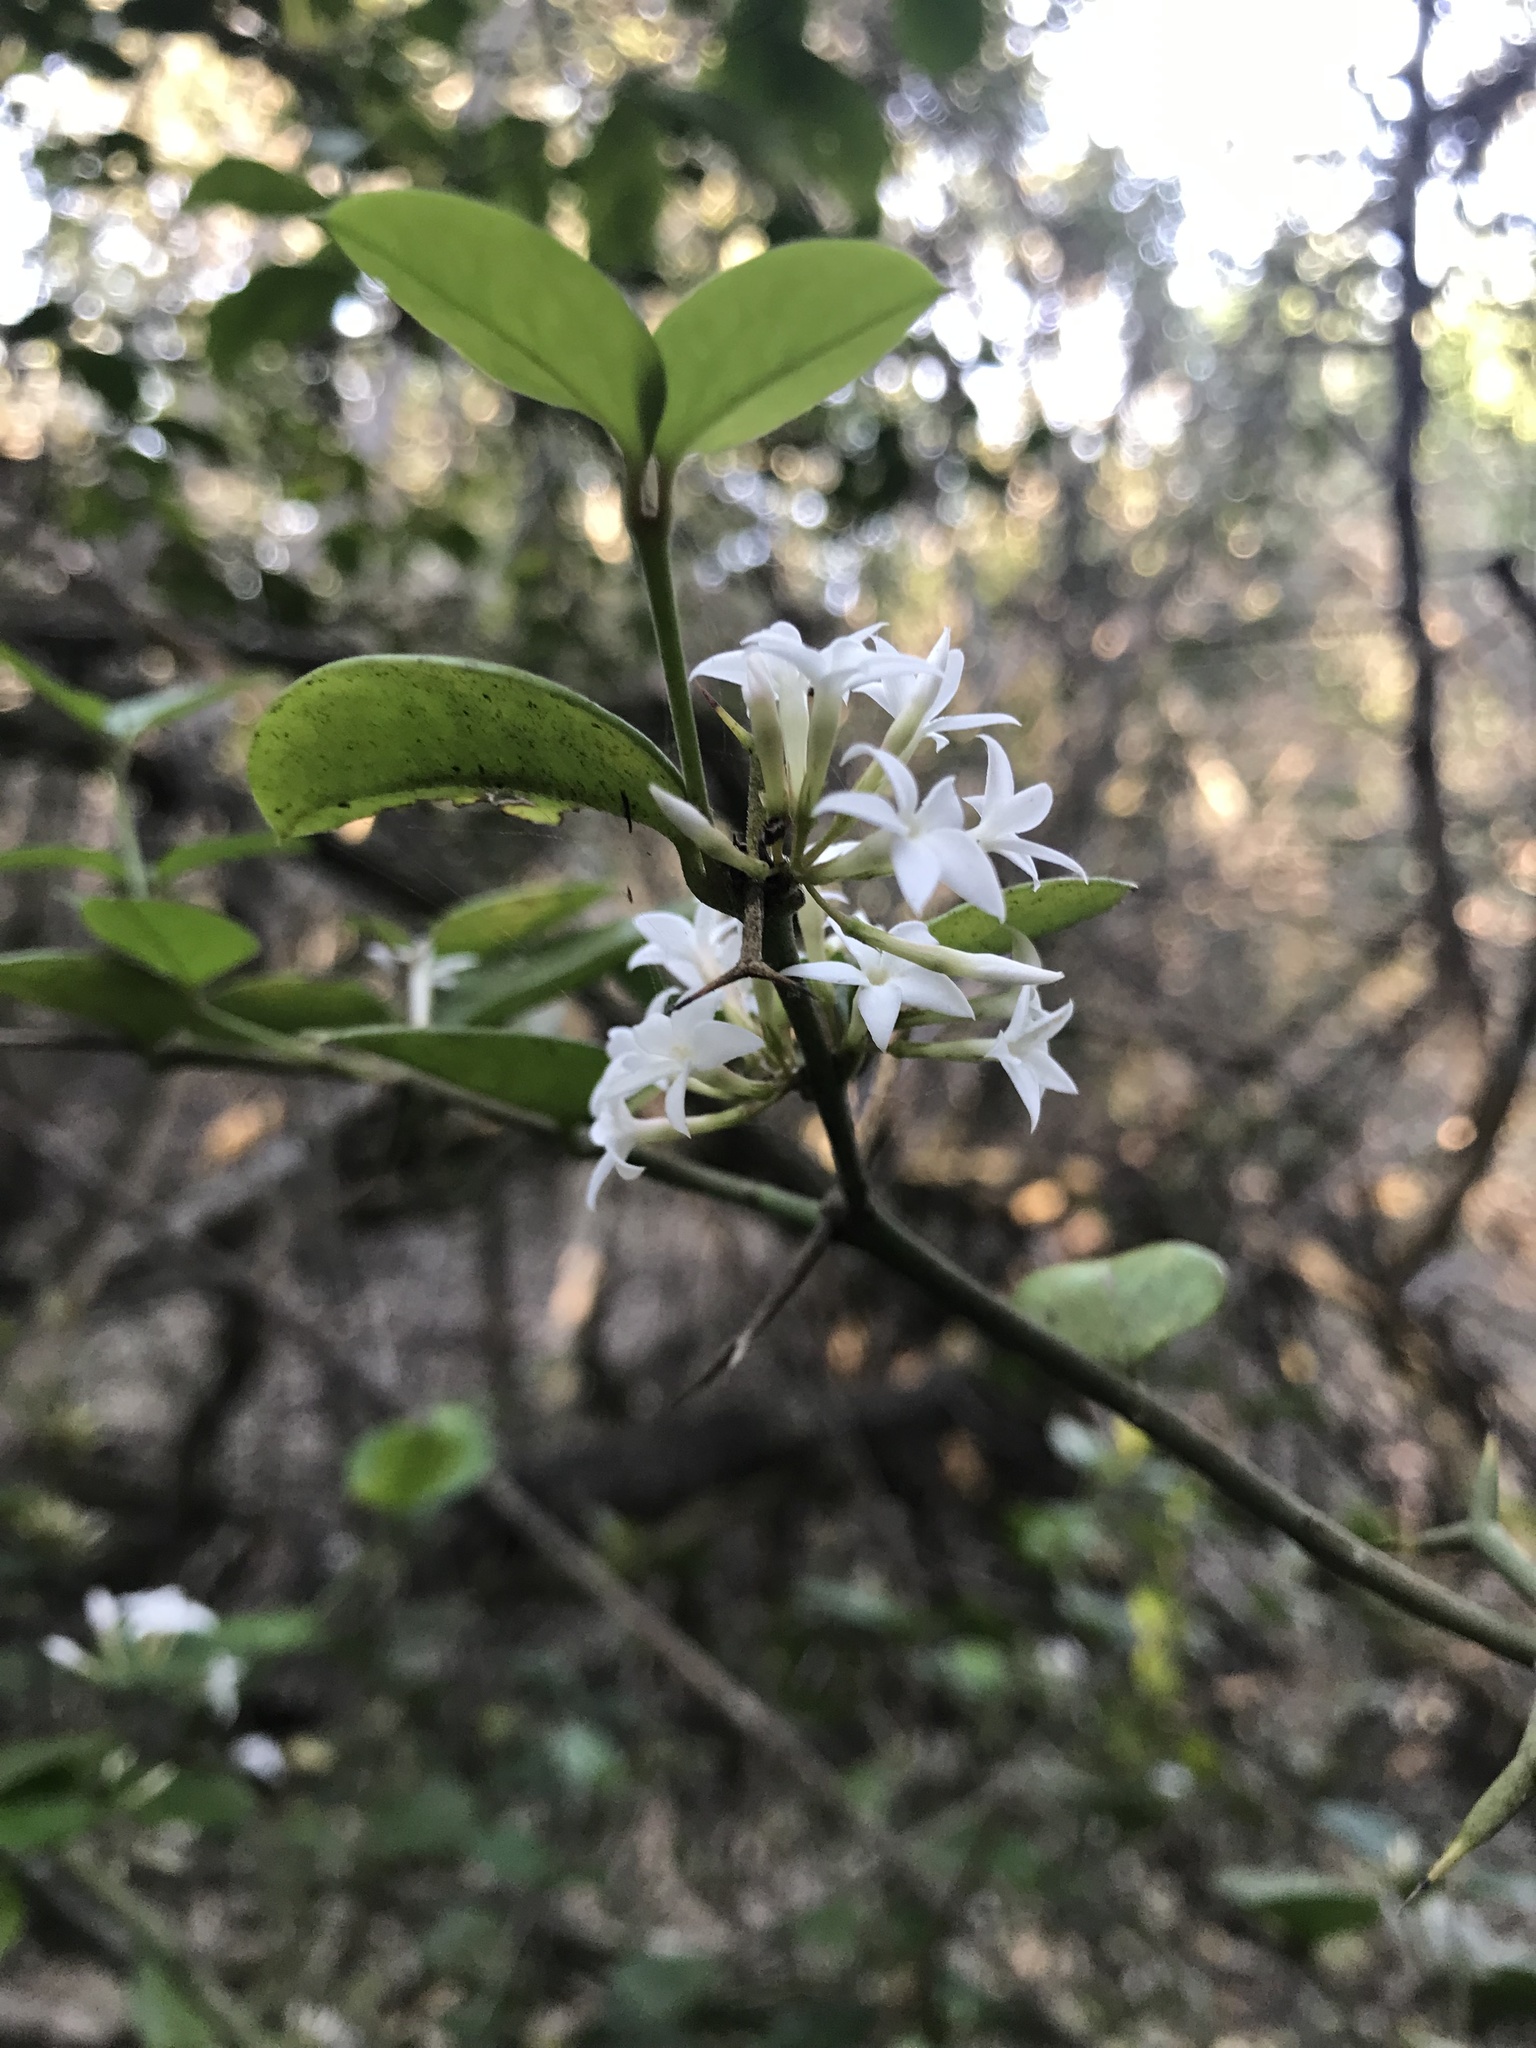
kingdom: Plantae
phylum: Tracheophyta
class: Magnoliopsida
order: Gentianales
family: Apocynaceae
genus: Carissa
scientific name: Carissa bispinosa
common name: Forest num-num
